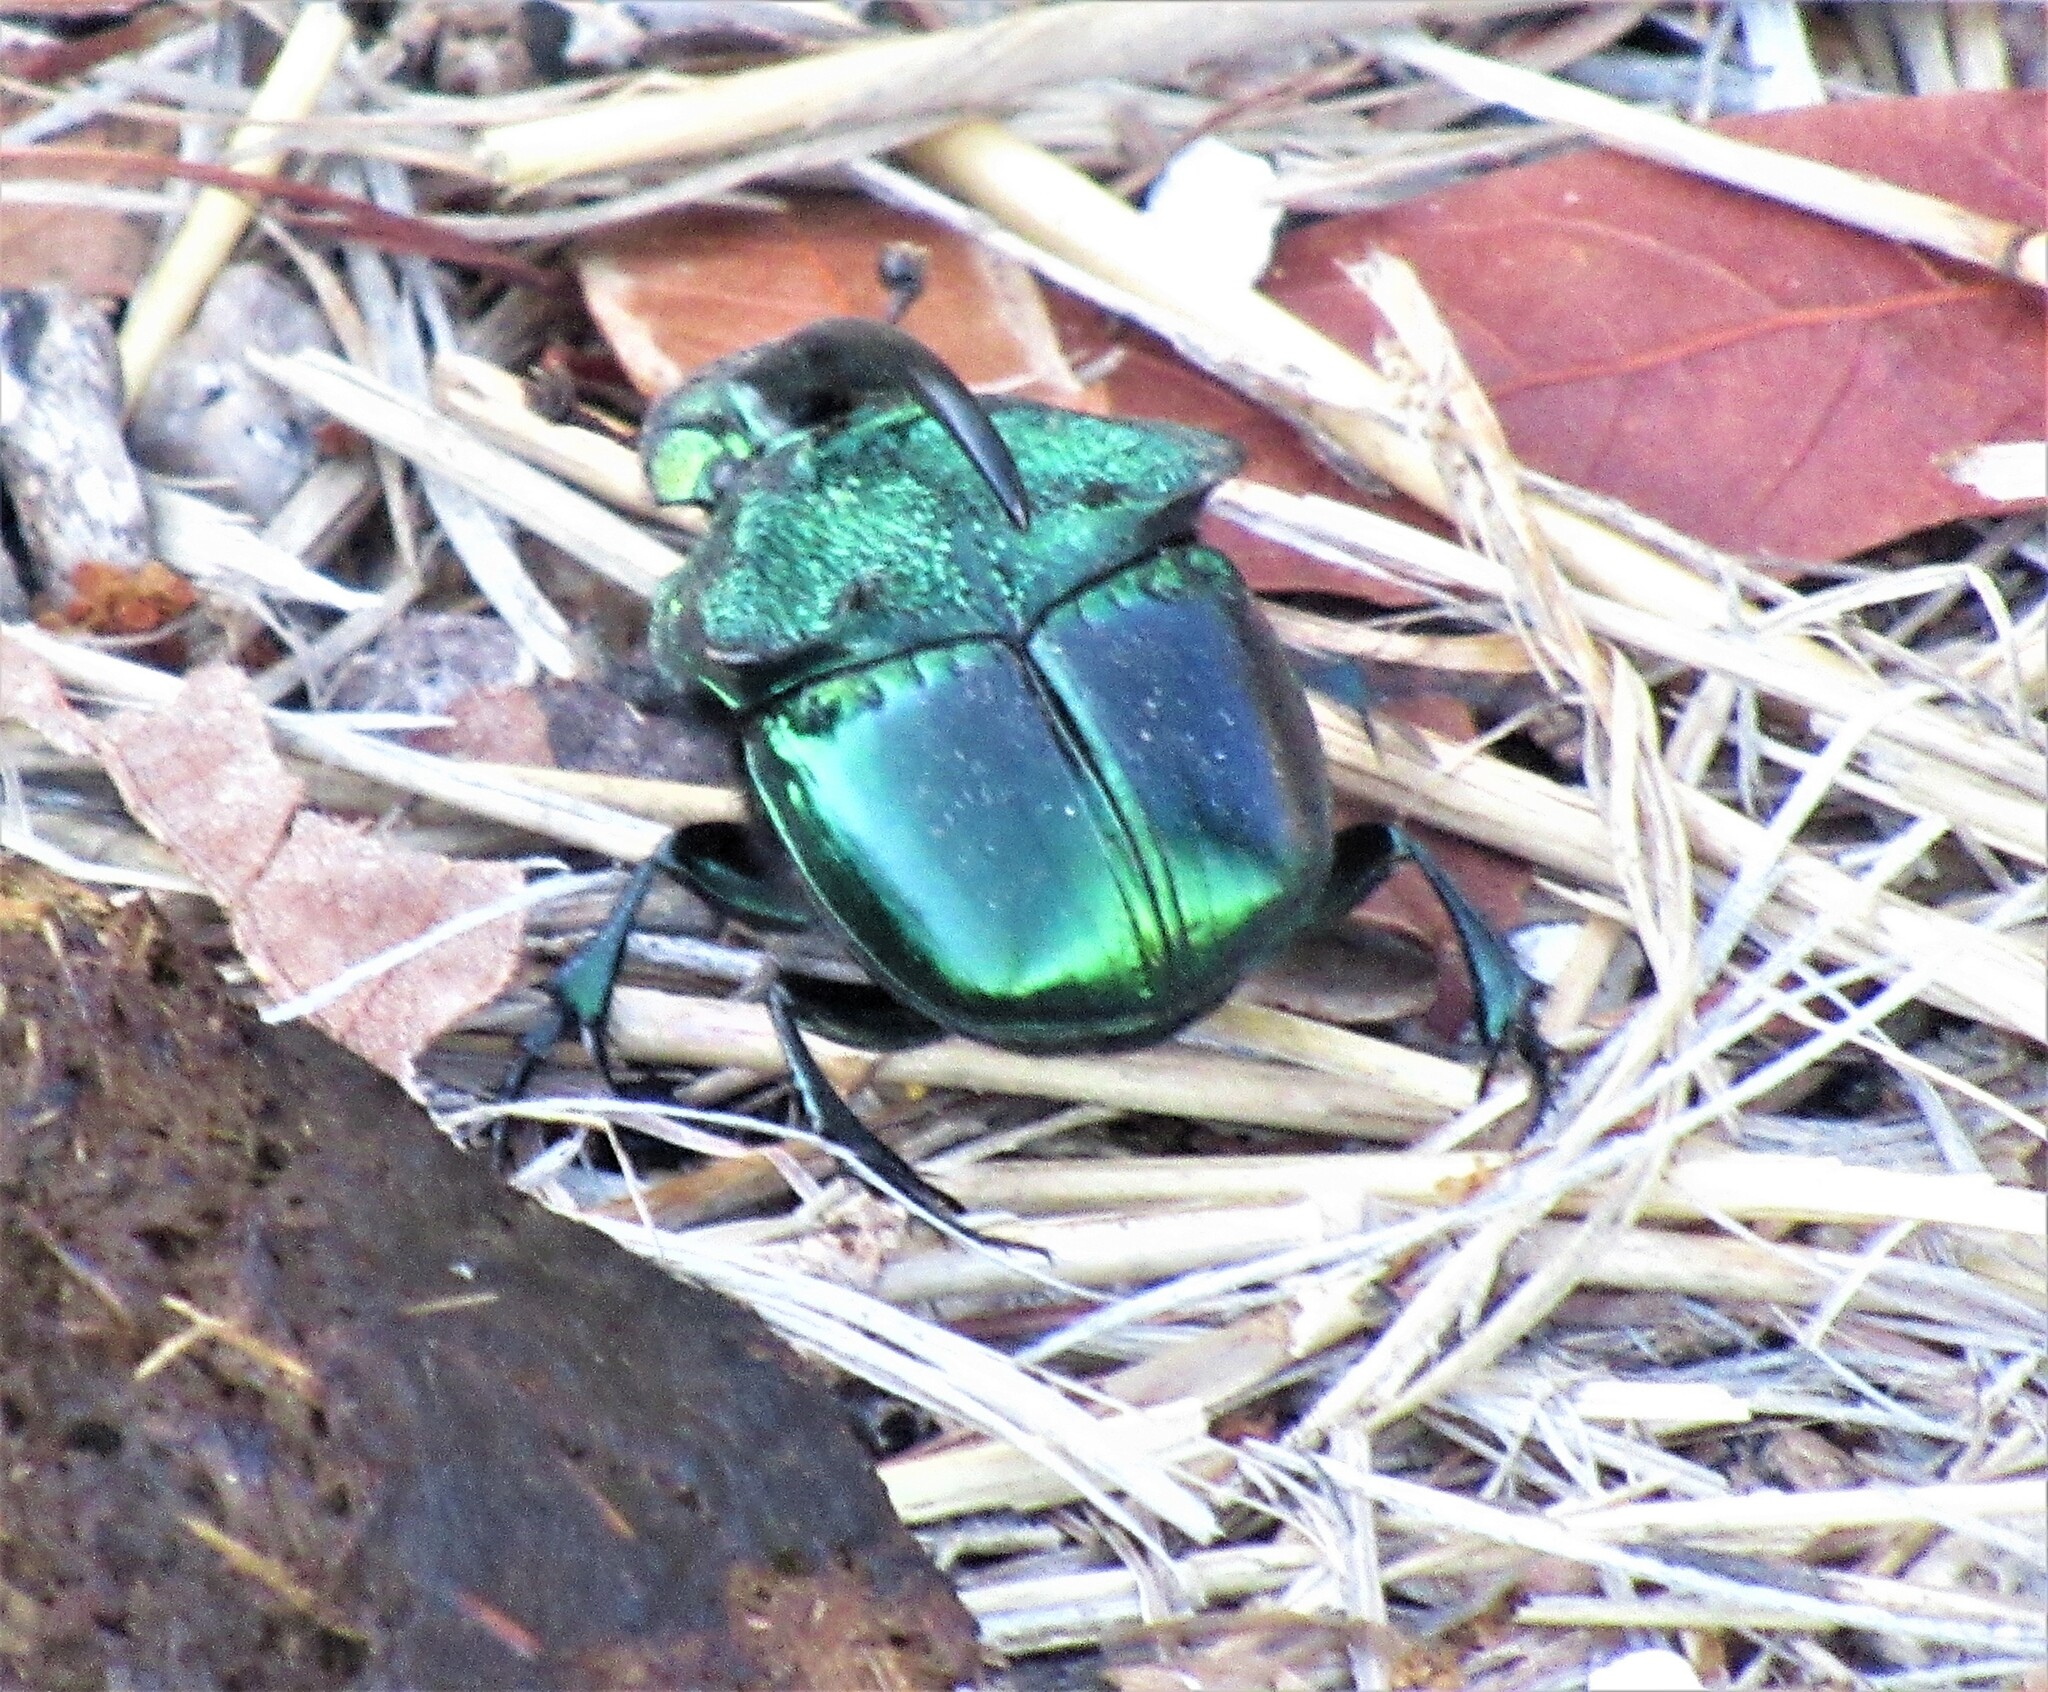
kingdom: Animalia
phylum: Arthropoda
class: Insecta
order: Coleoptera
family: Scarabaeidae
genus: Phanaeus
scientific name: Phanaeus borealis
